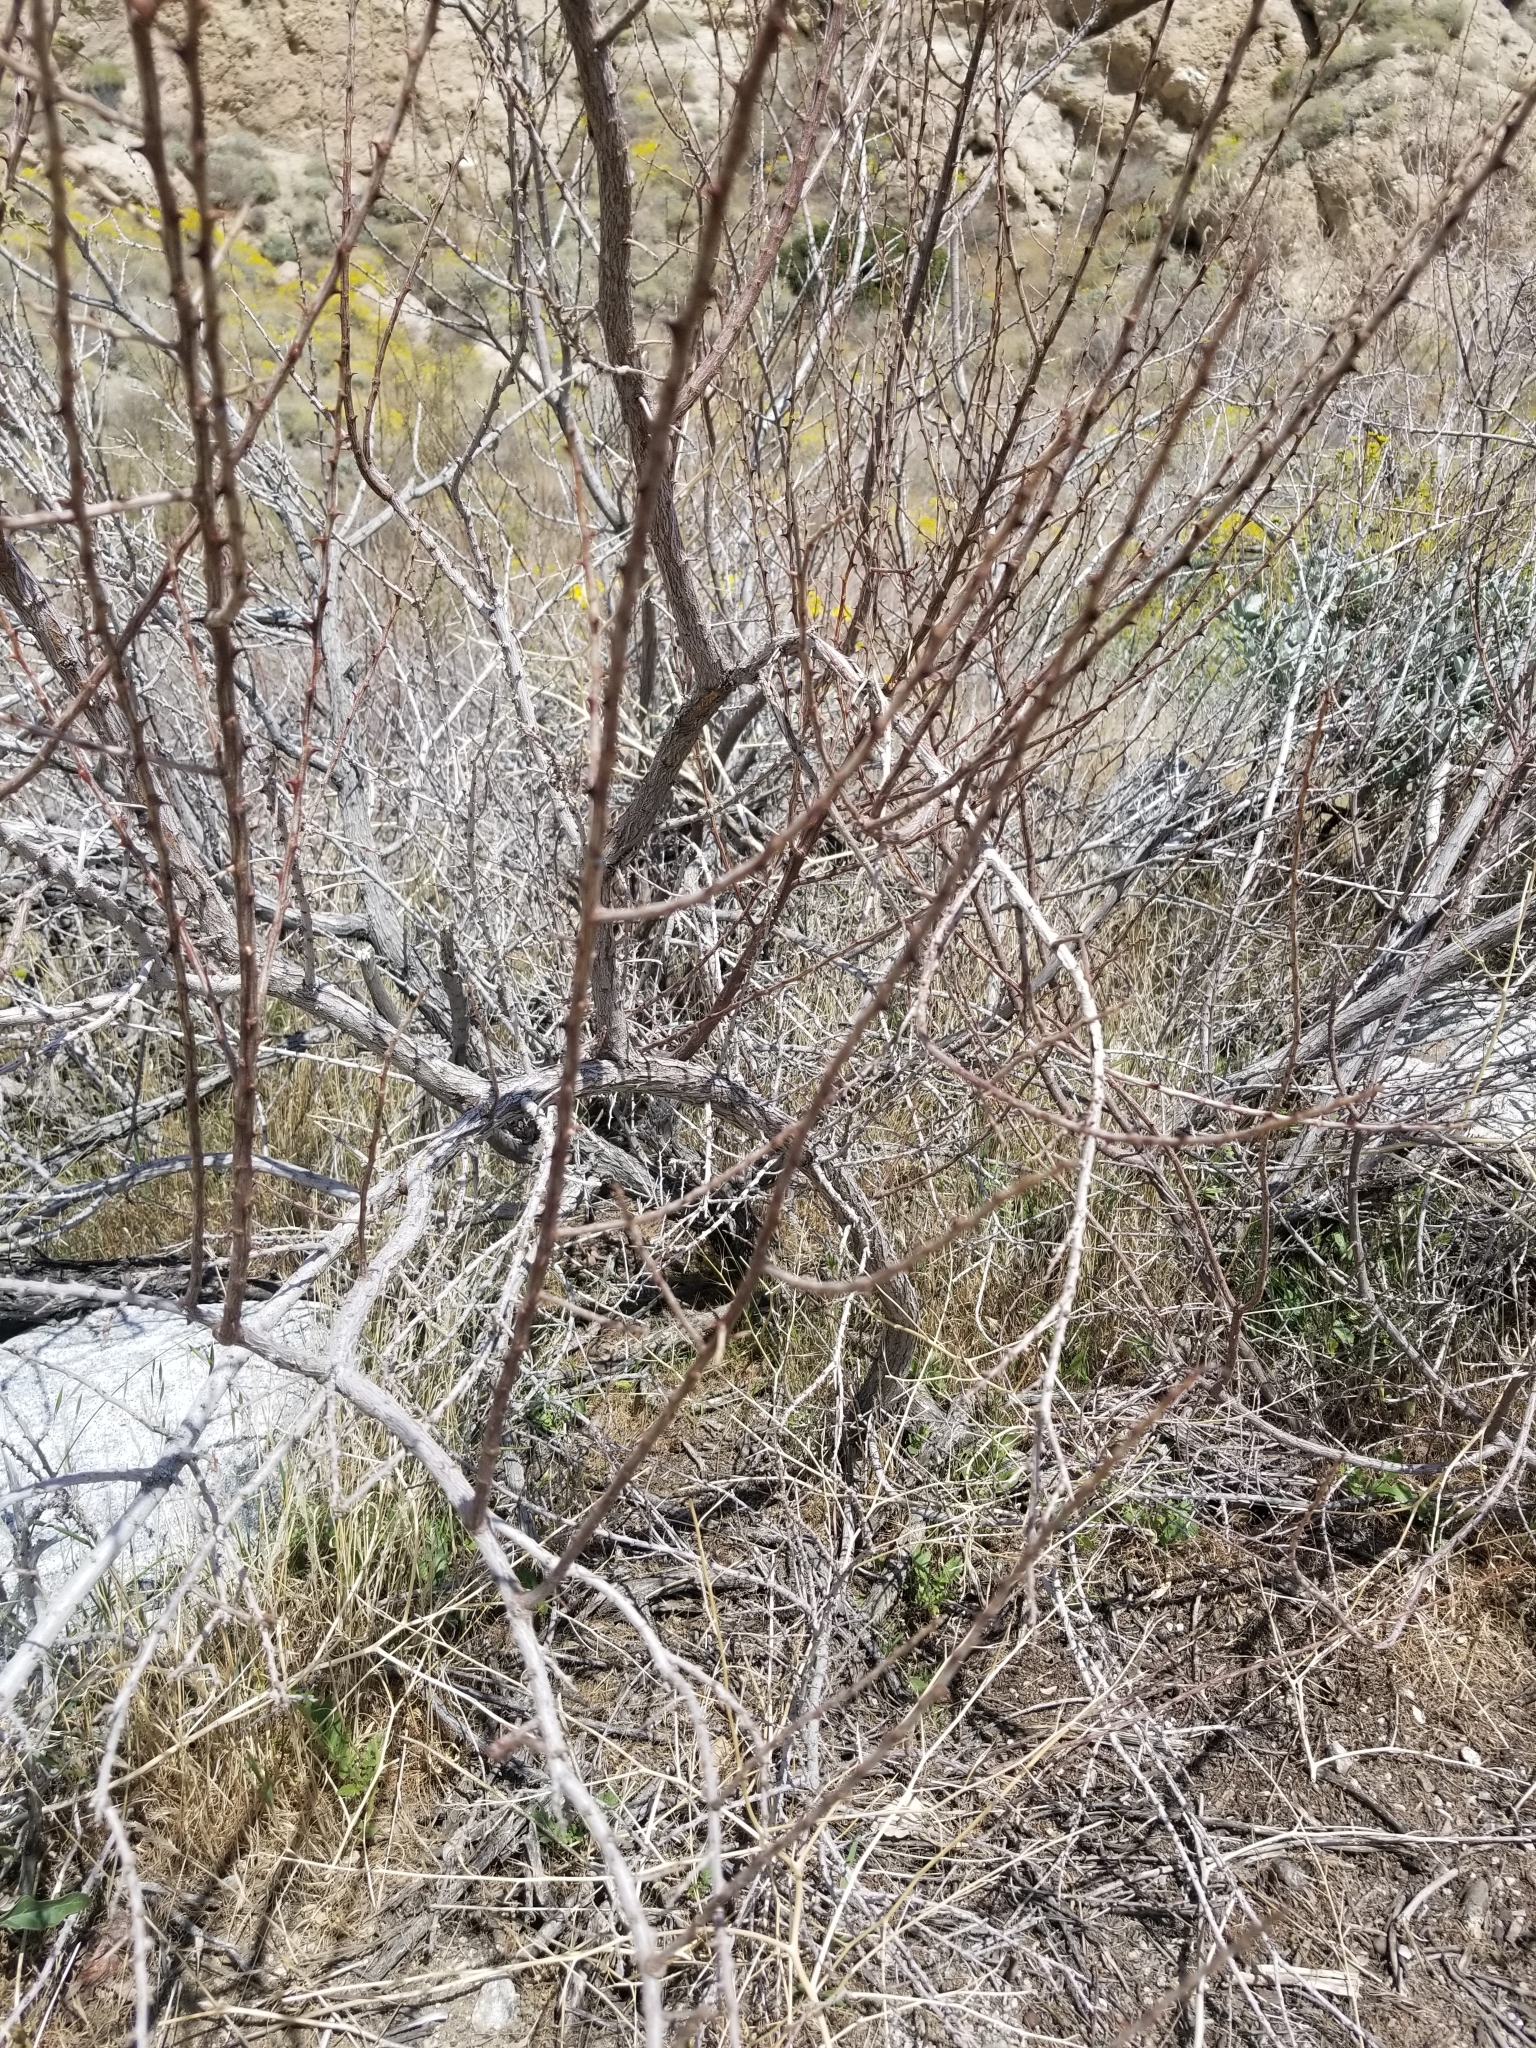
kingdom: Plantae
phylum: Tracheophyta
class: Magnoliopsida
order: Fabales
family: Fabaceae
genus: Senegalia
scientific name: Senegalia greggii
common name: Texas-mimosa
